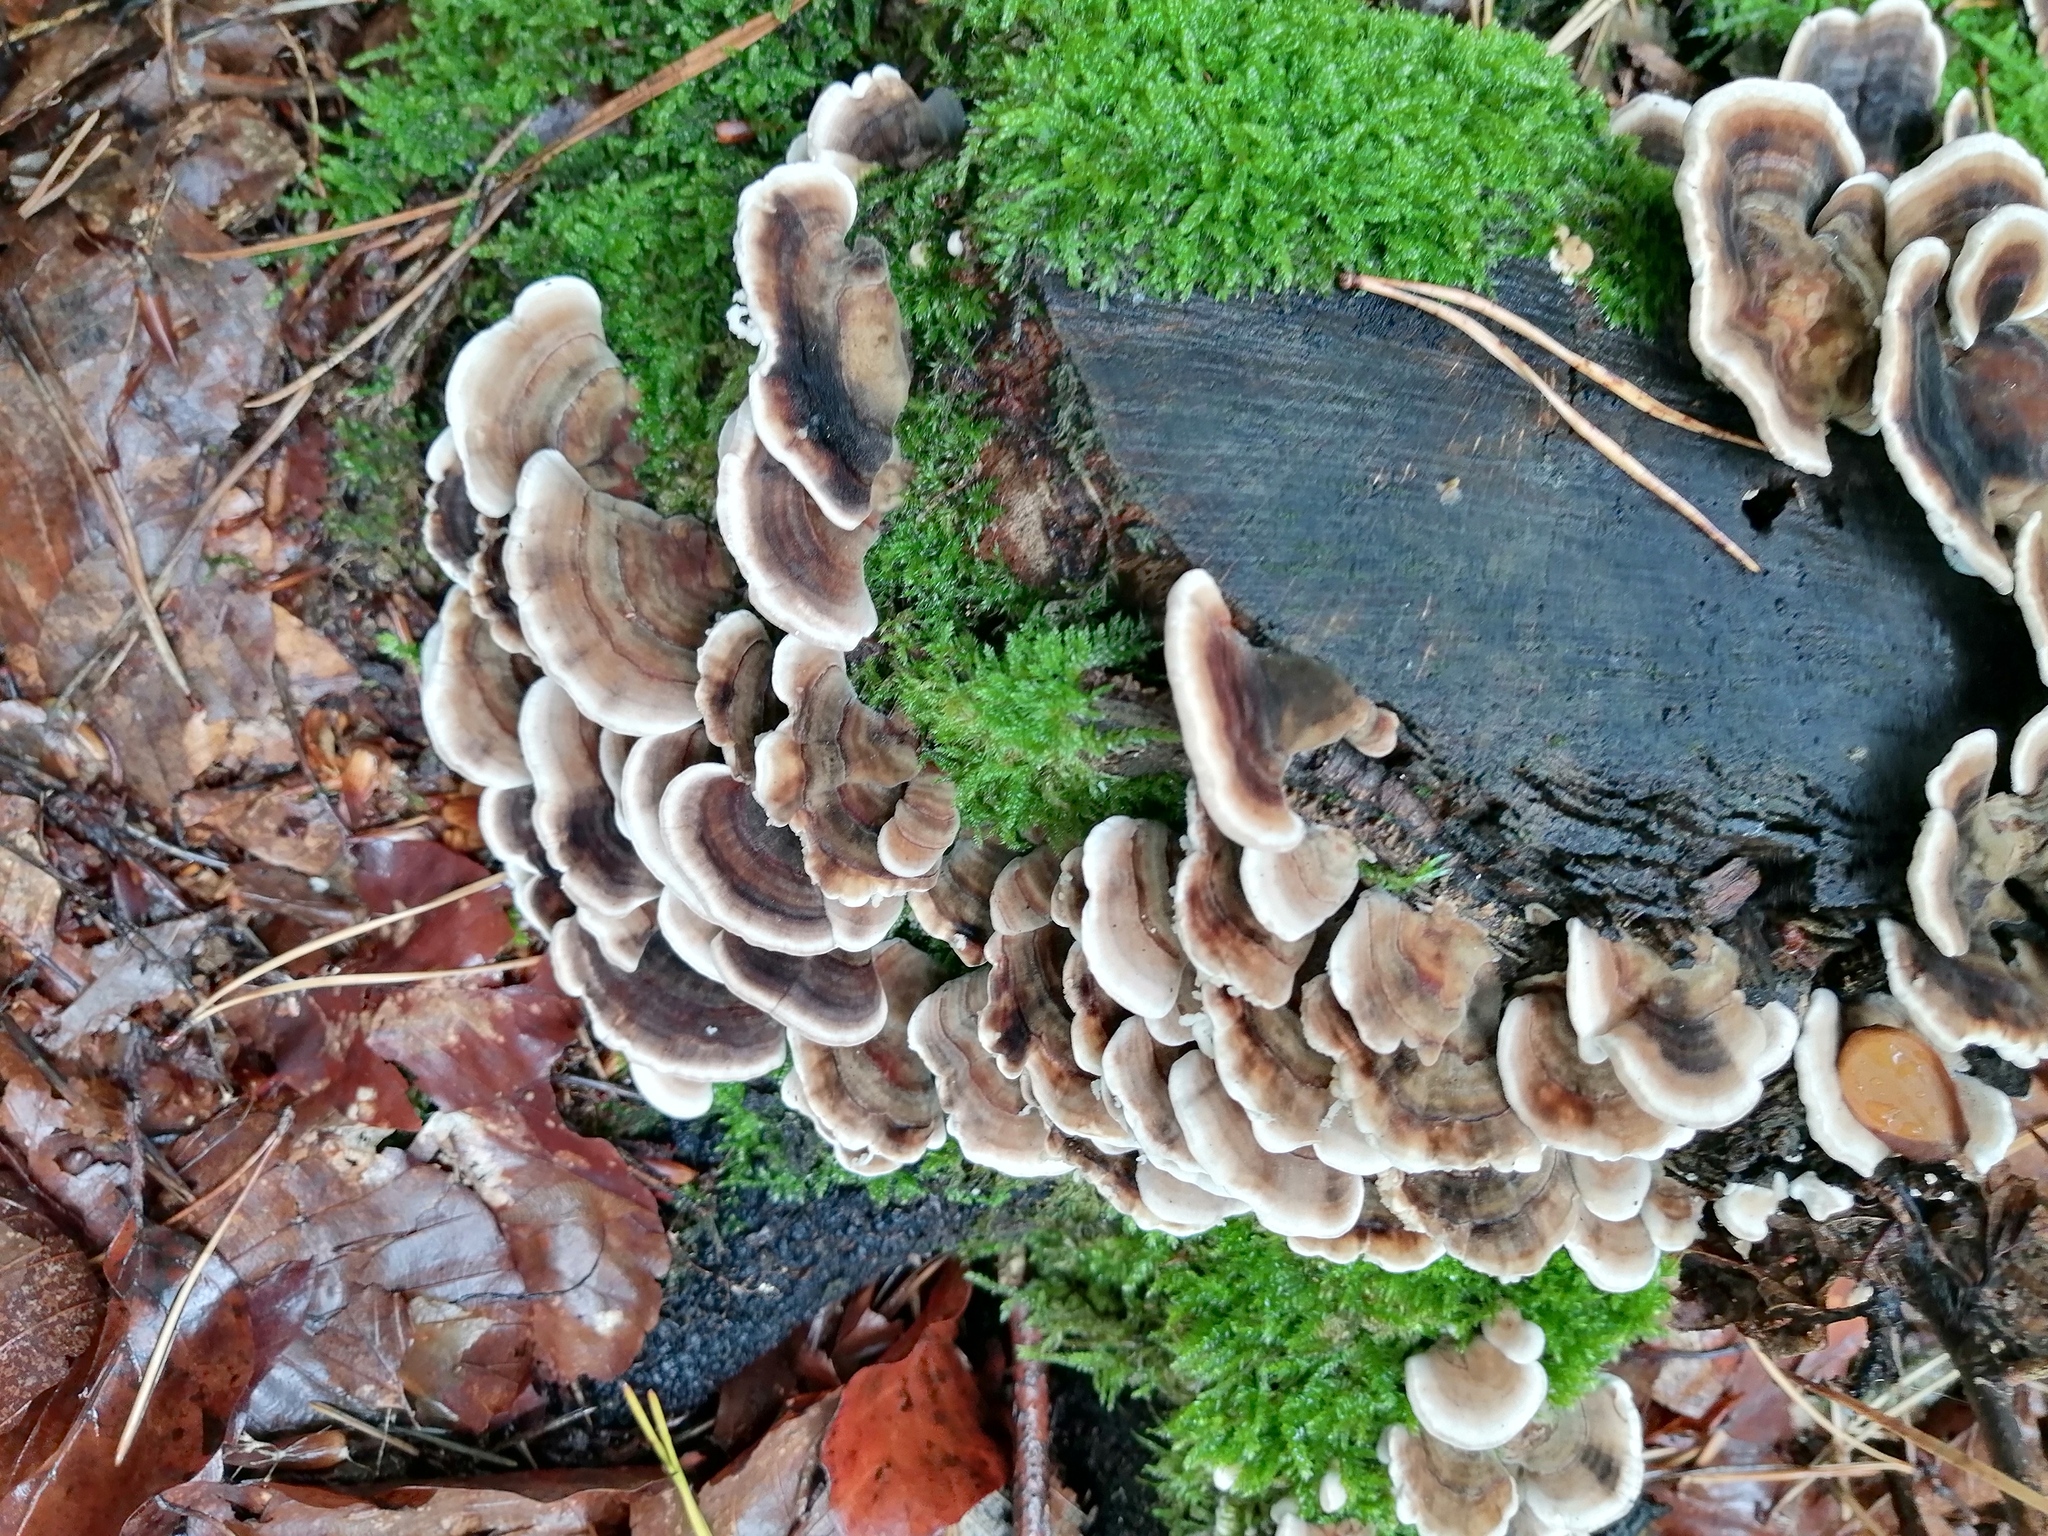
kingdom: Fungi
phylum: Basidiomycota
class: Agaricomycetes
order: Polyporales
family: Polyporaceae
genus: Trametes
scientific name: Trametes versicolor
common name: Turkeytail
